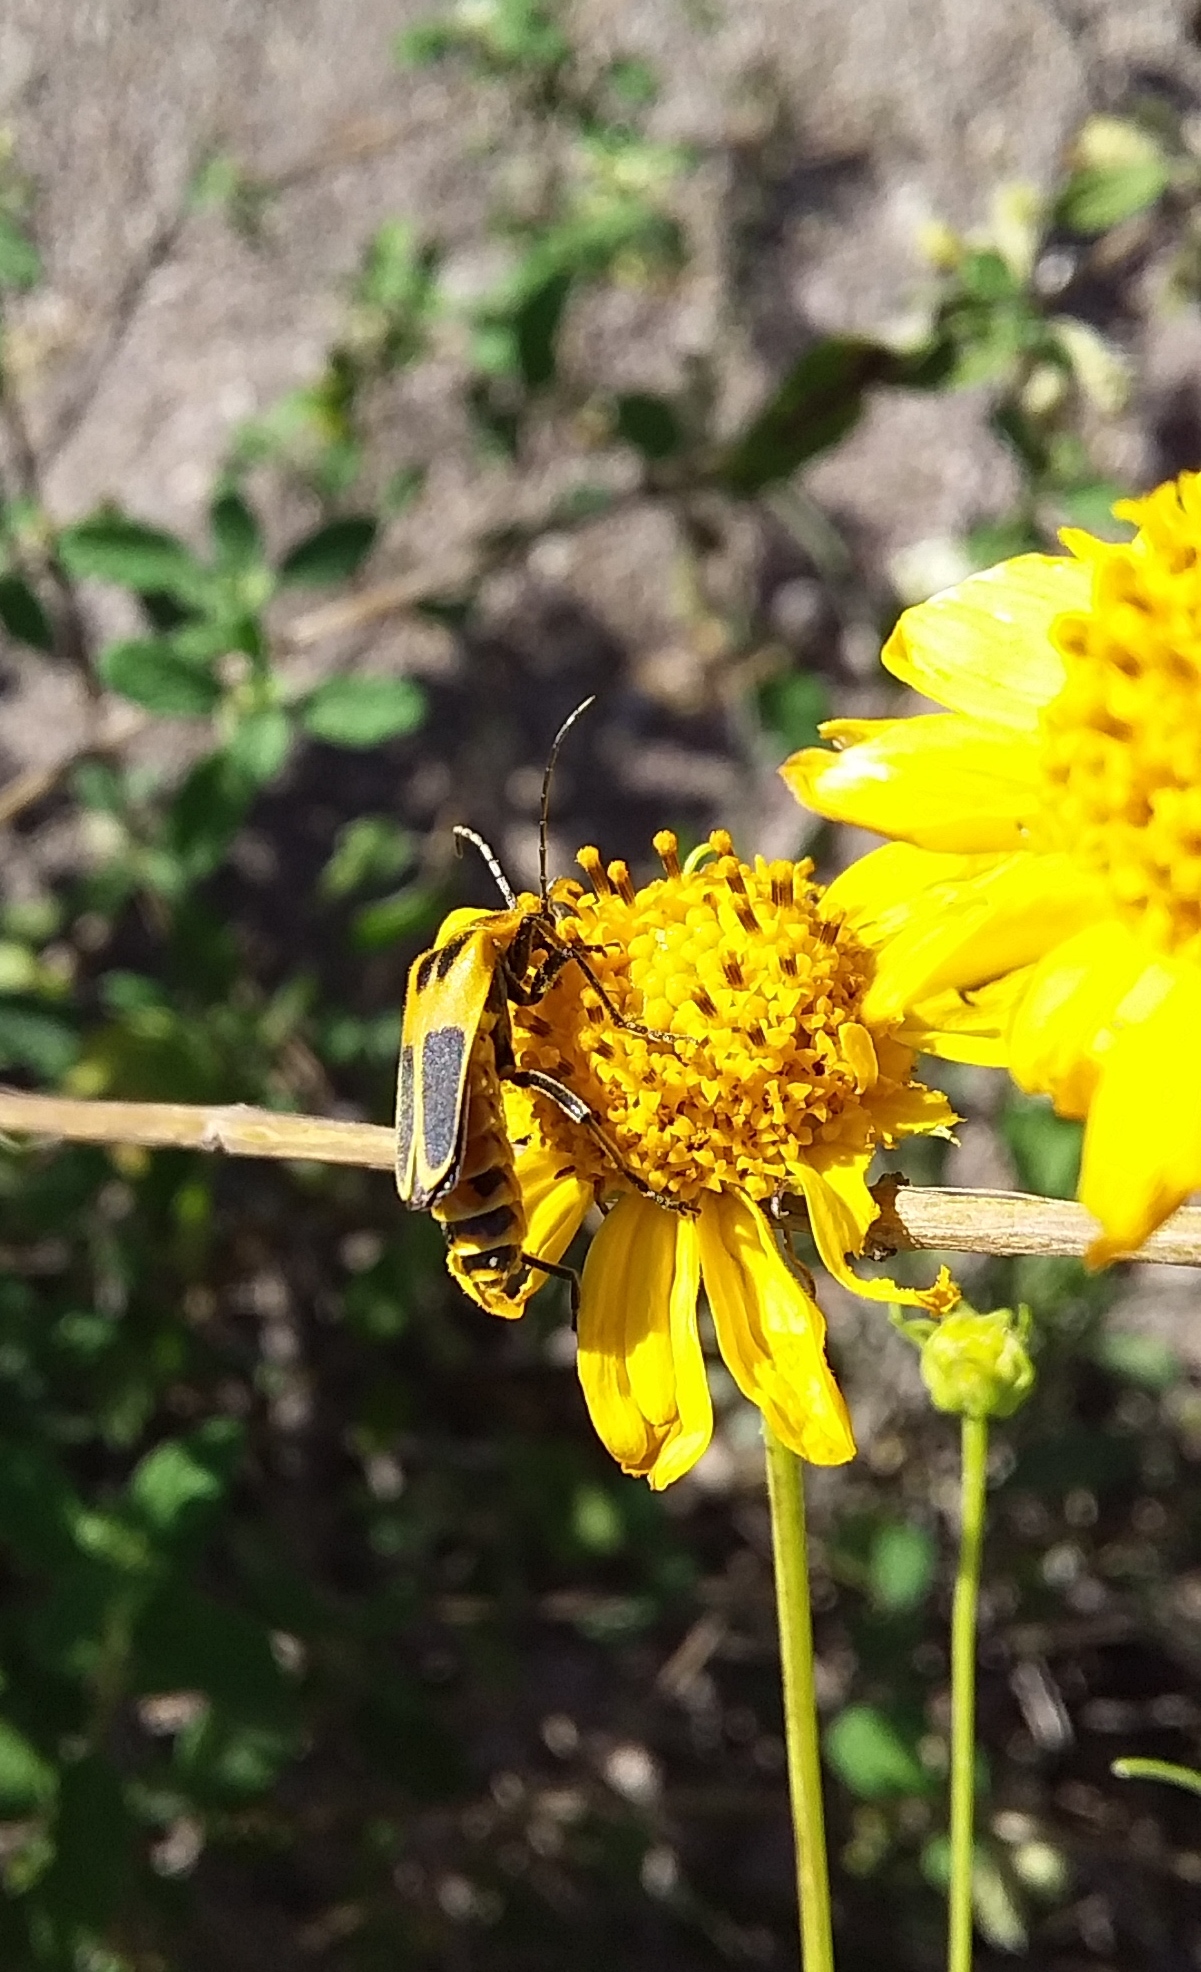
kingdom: Animalia
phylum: Arthropoda
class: Insecta
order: Coleoptera
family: Cantharidae
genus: Chauliognathus
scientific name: Chauliognathus scutellaris
